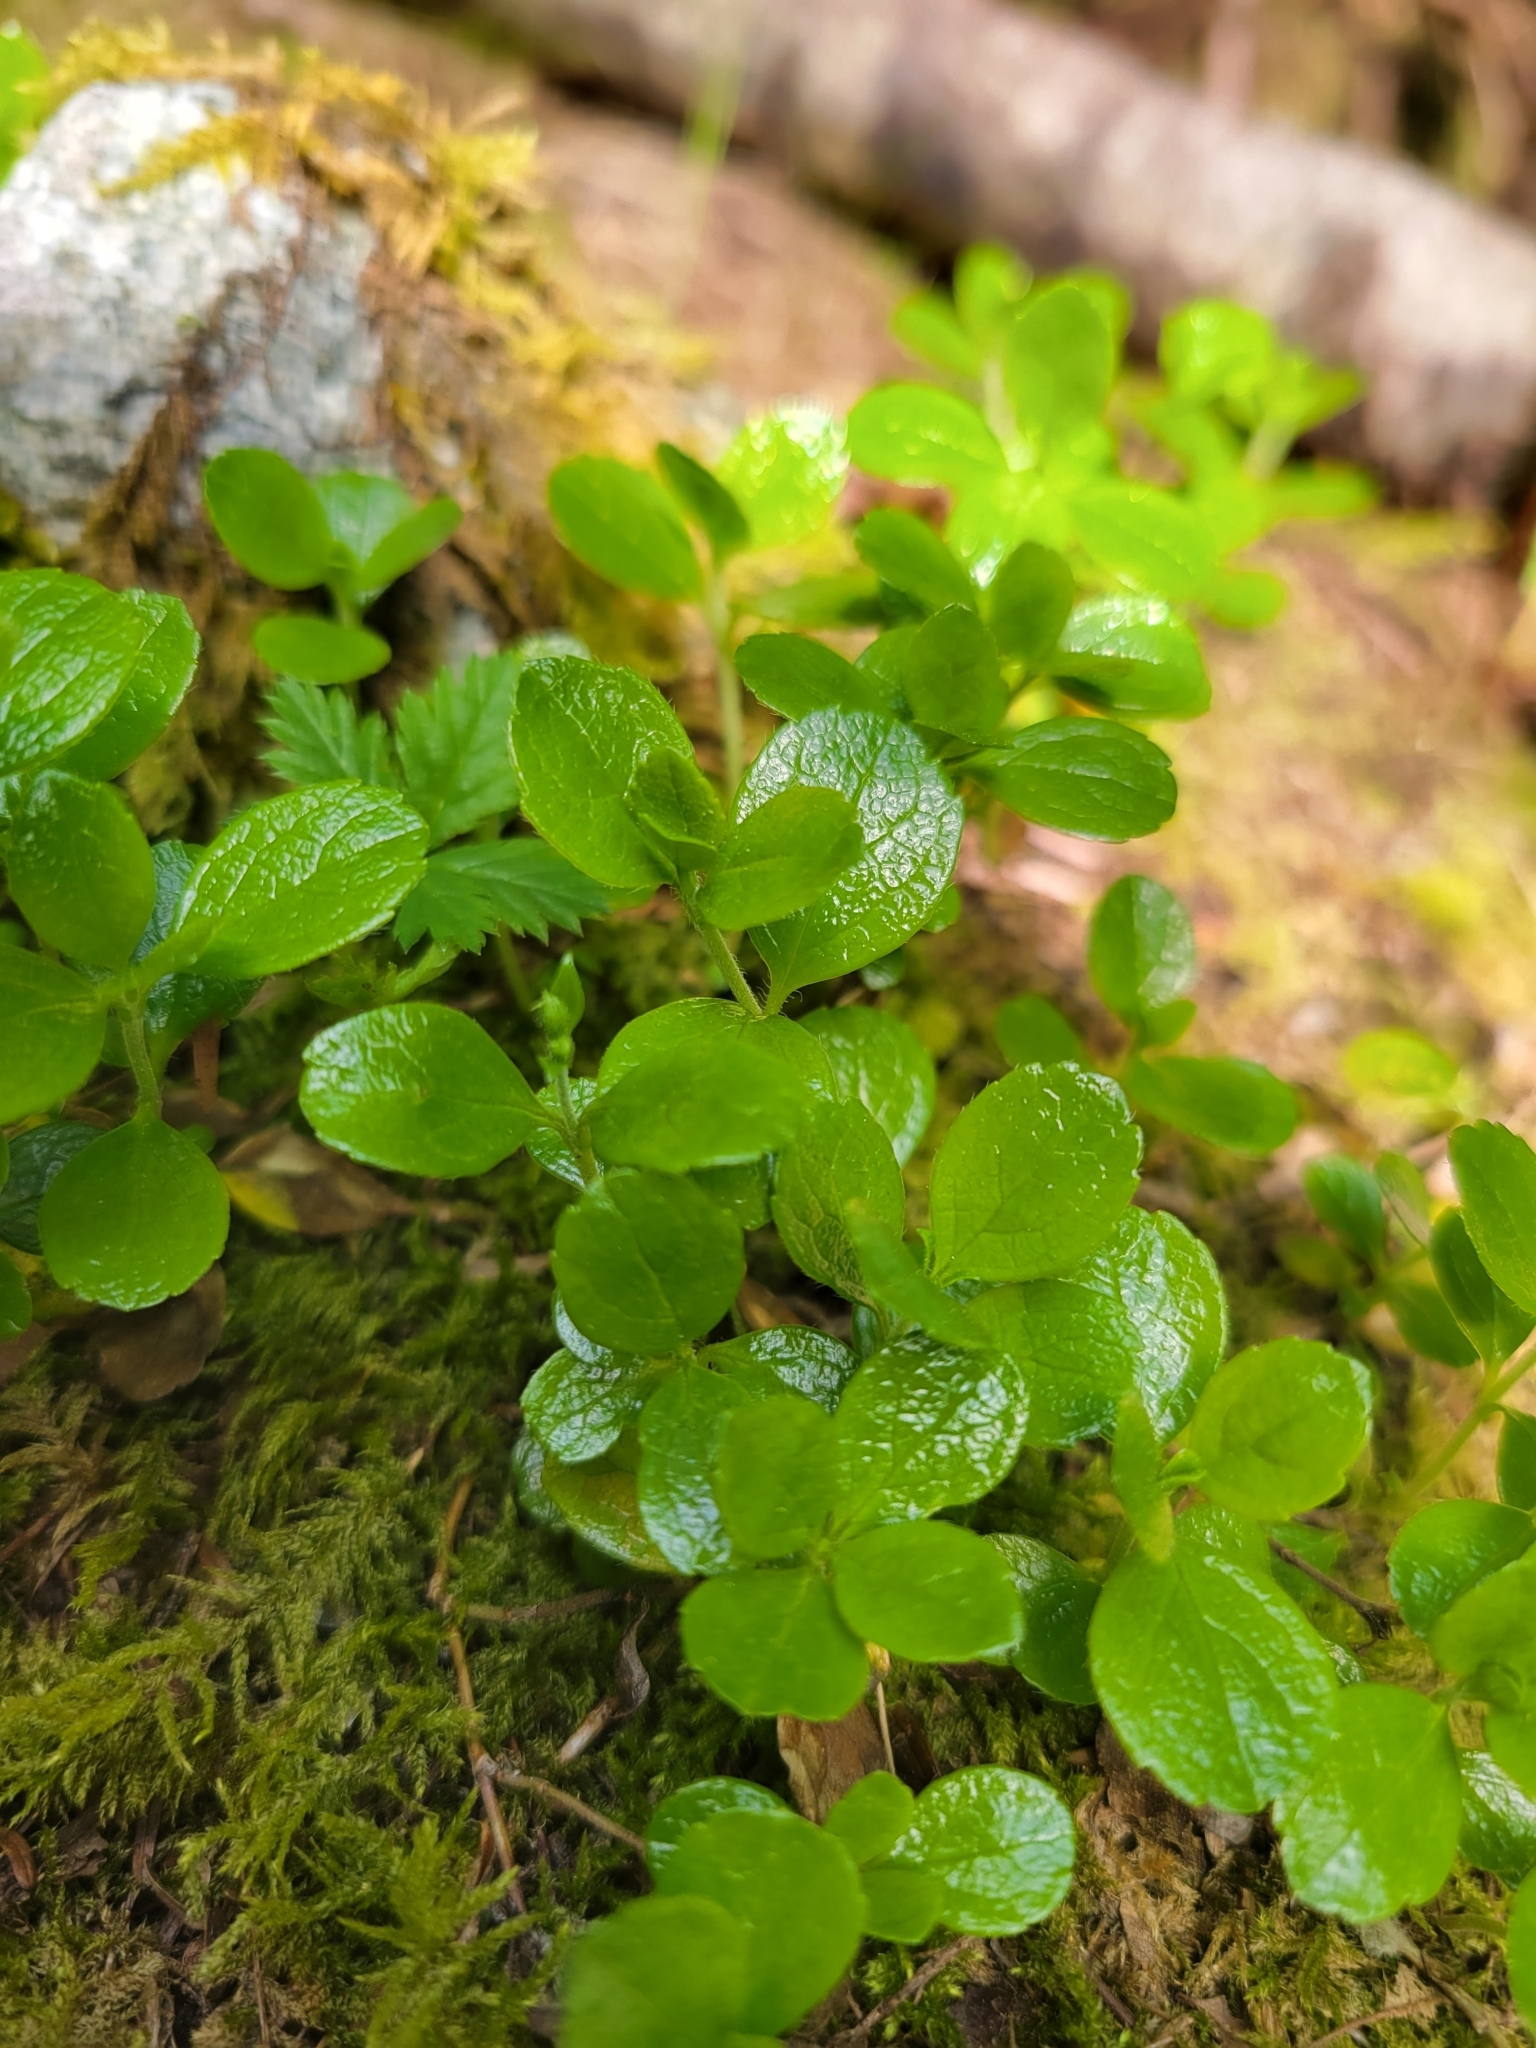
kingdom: Plantae
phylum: Tracheophyta
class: Magnoliopsida
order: Dipsacales
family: Caprifoliaceae
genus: Linnaea
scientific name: Linnaea borealis
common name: Twinflower
